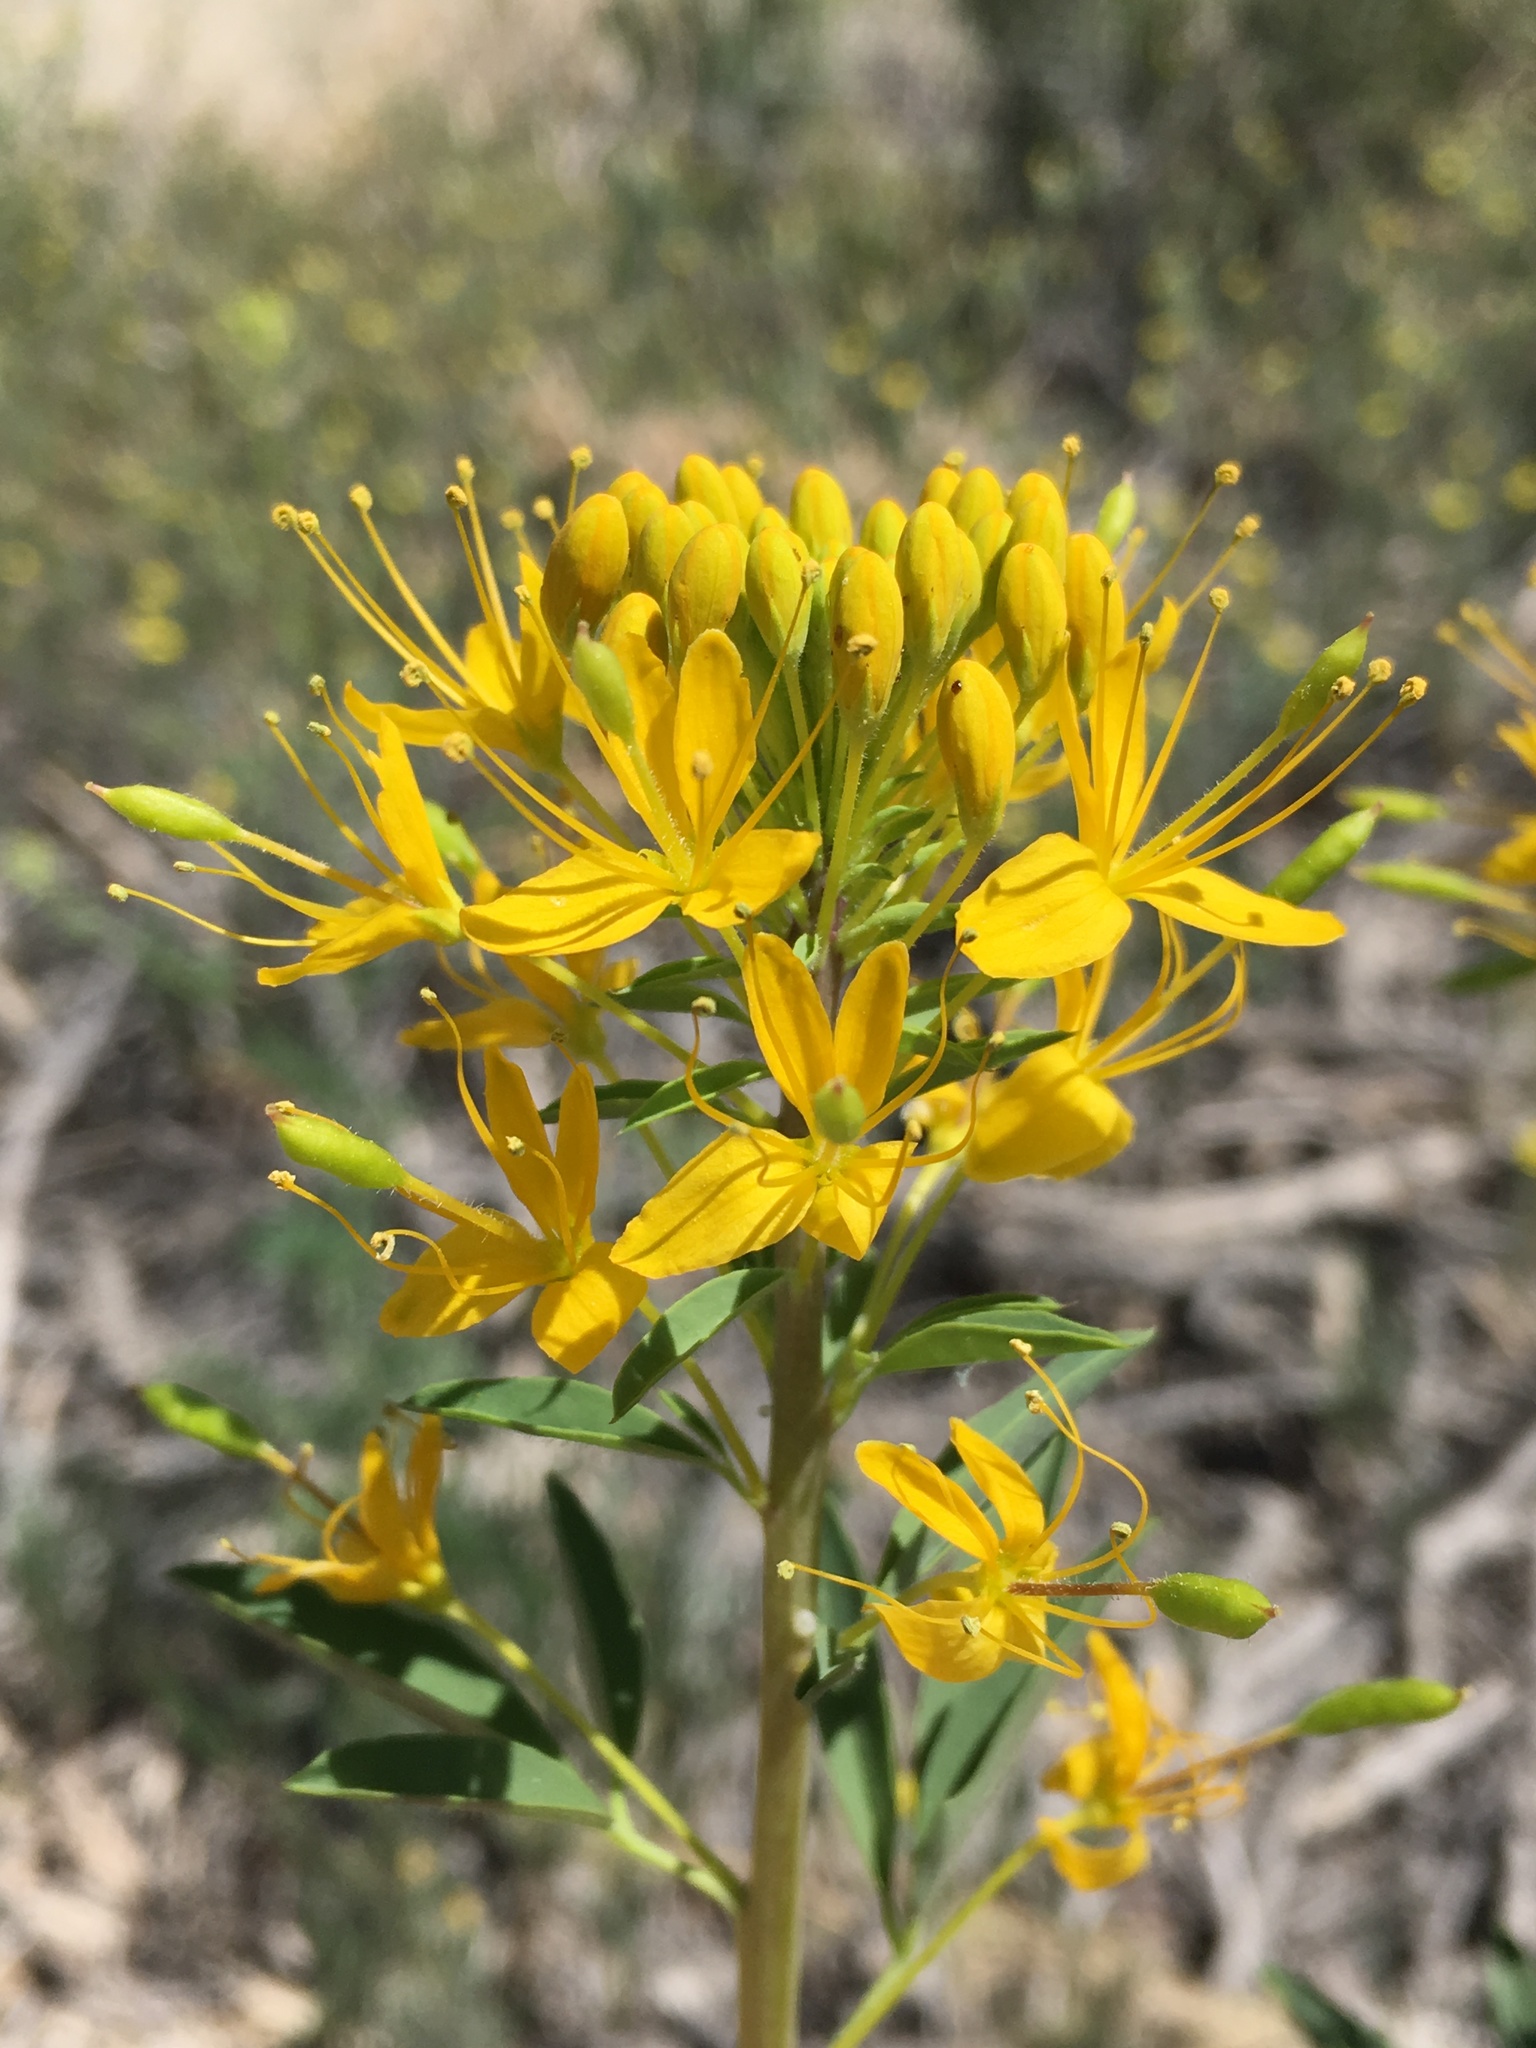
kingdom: Plantae
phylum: Tracheophyta
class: Magnoliopsida
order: Brassicales
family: Cleomaceae
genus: Cleomella
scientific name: Cleomella lutea
